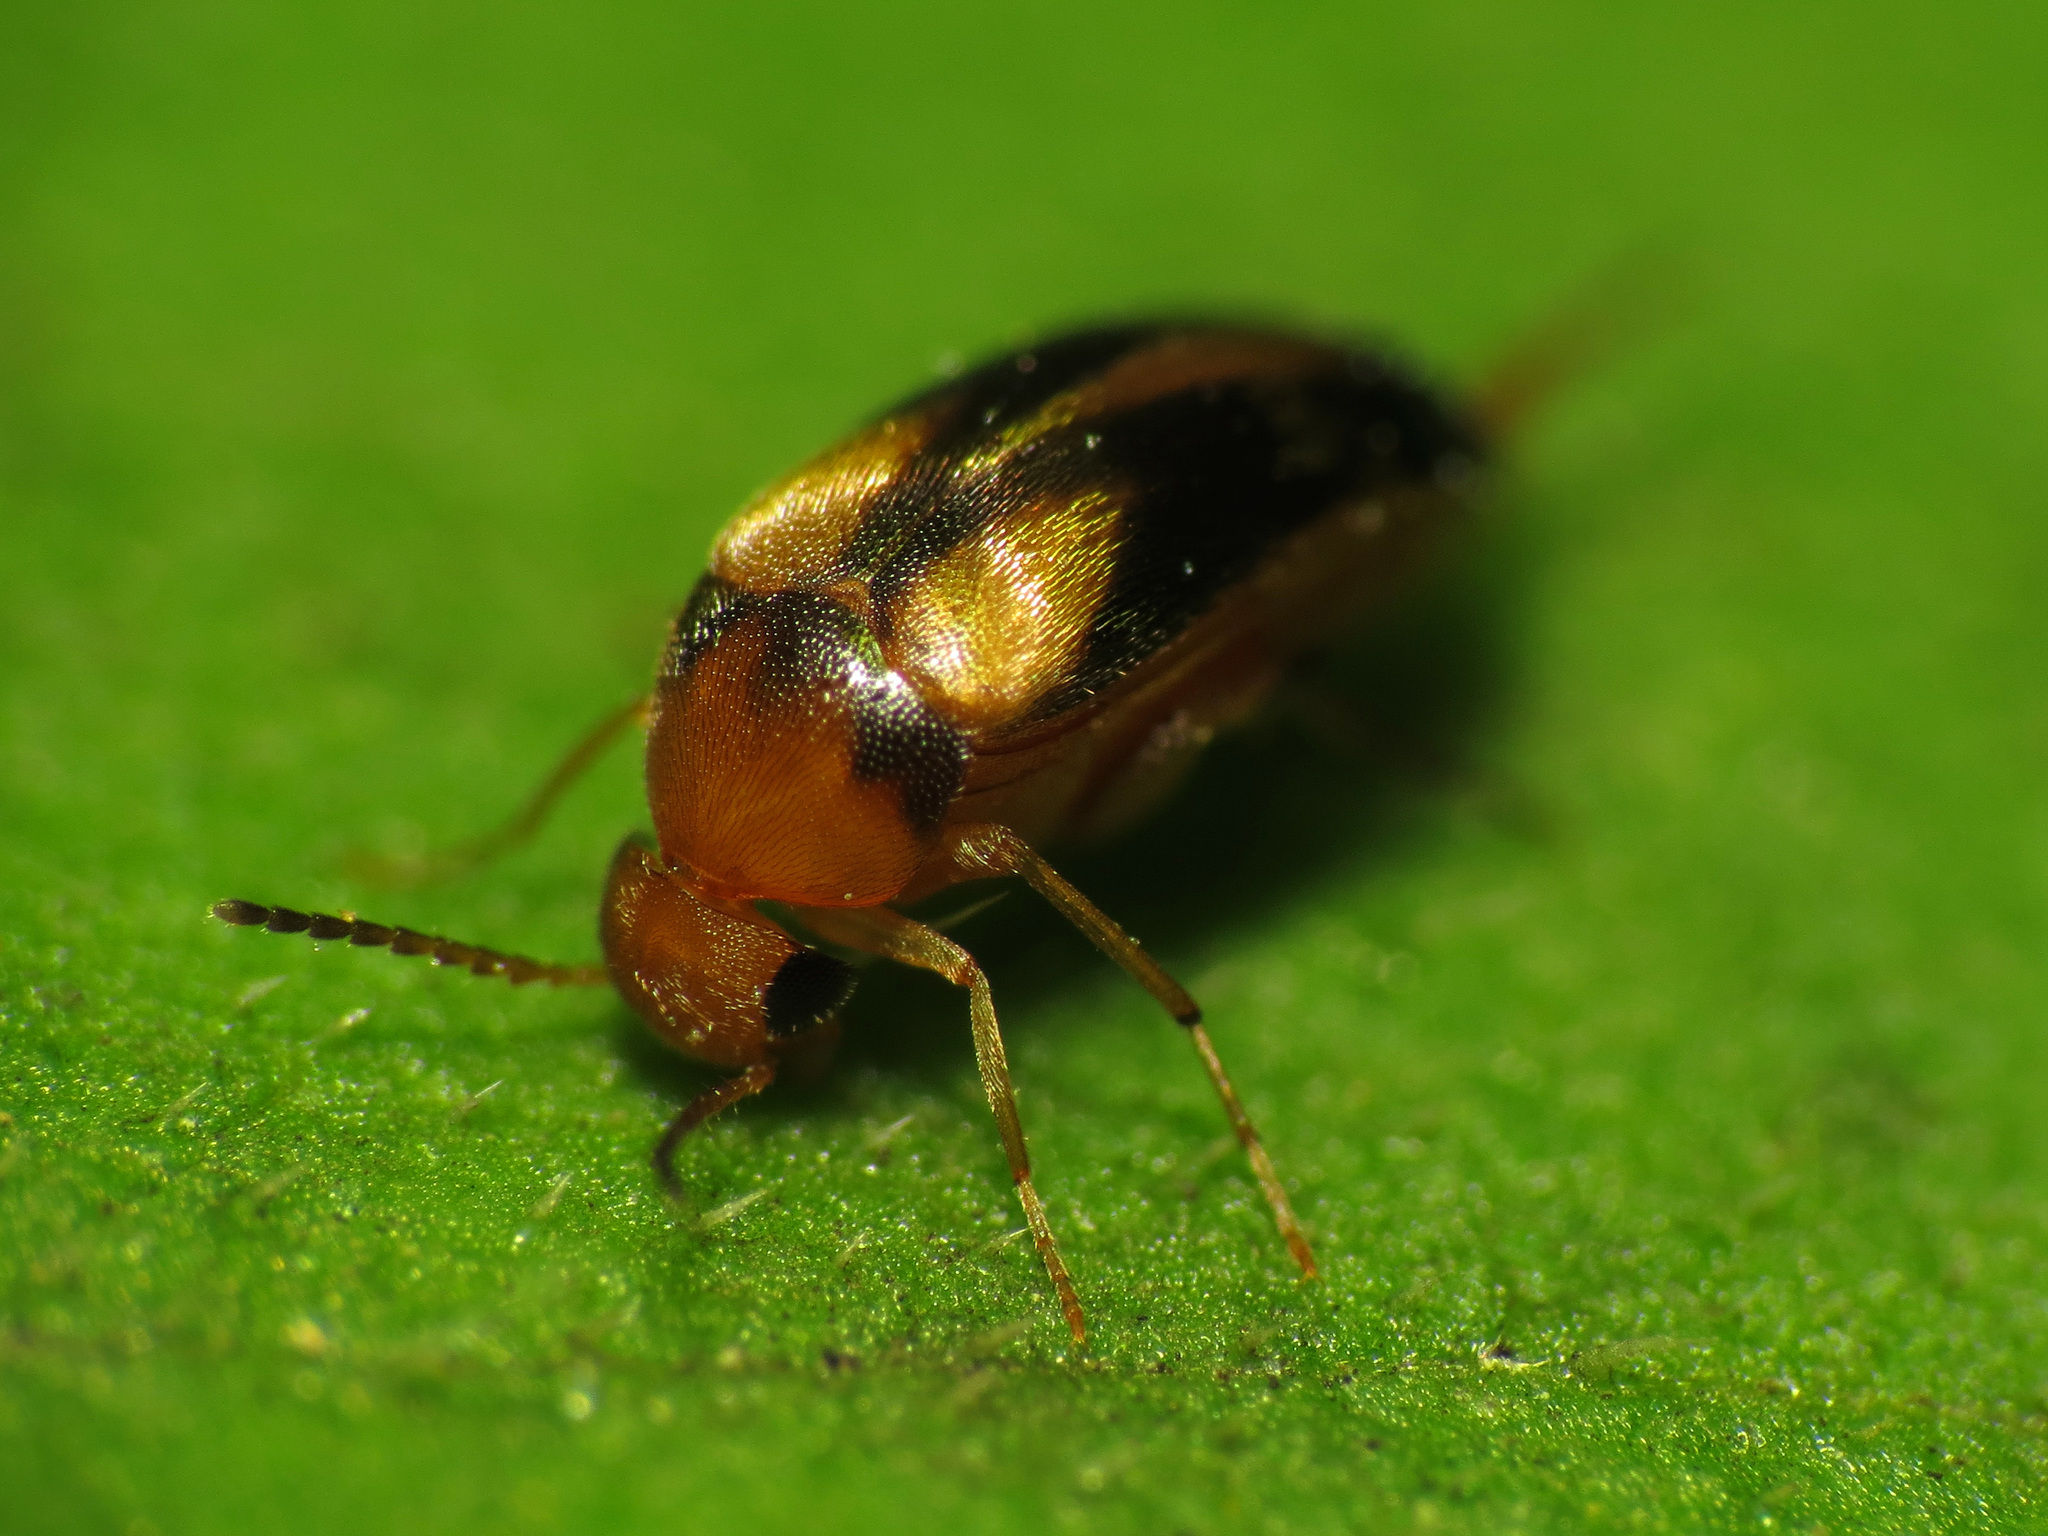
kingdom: Animalia
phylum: Arthropoda
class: Insecta
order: Coleoptera
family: Mordellidae
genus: Mordellistena
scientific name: Mordellistena ornata
